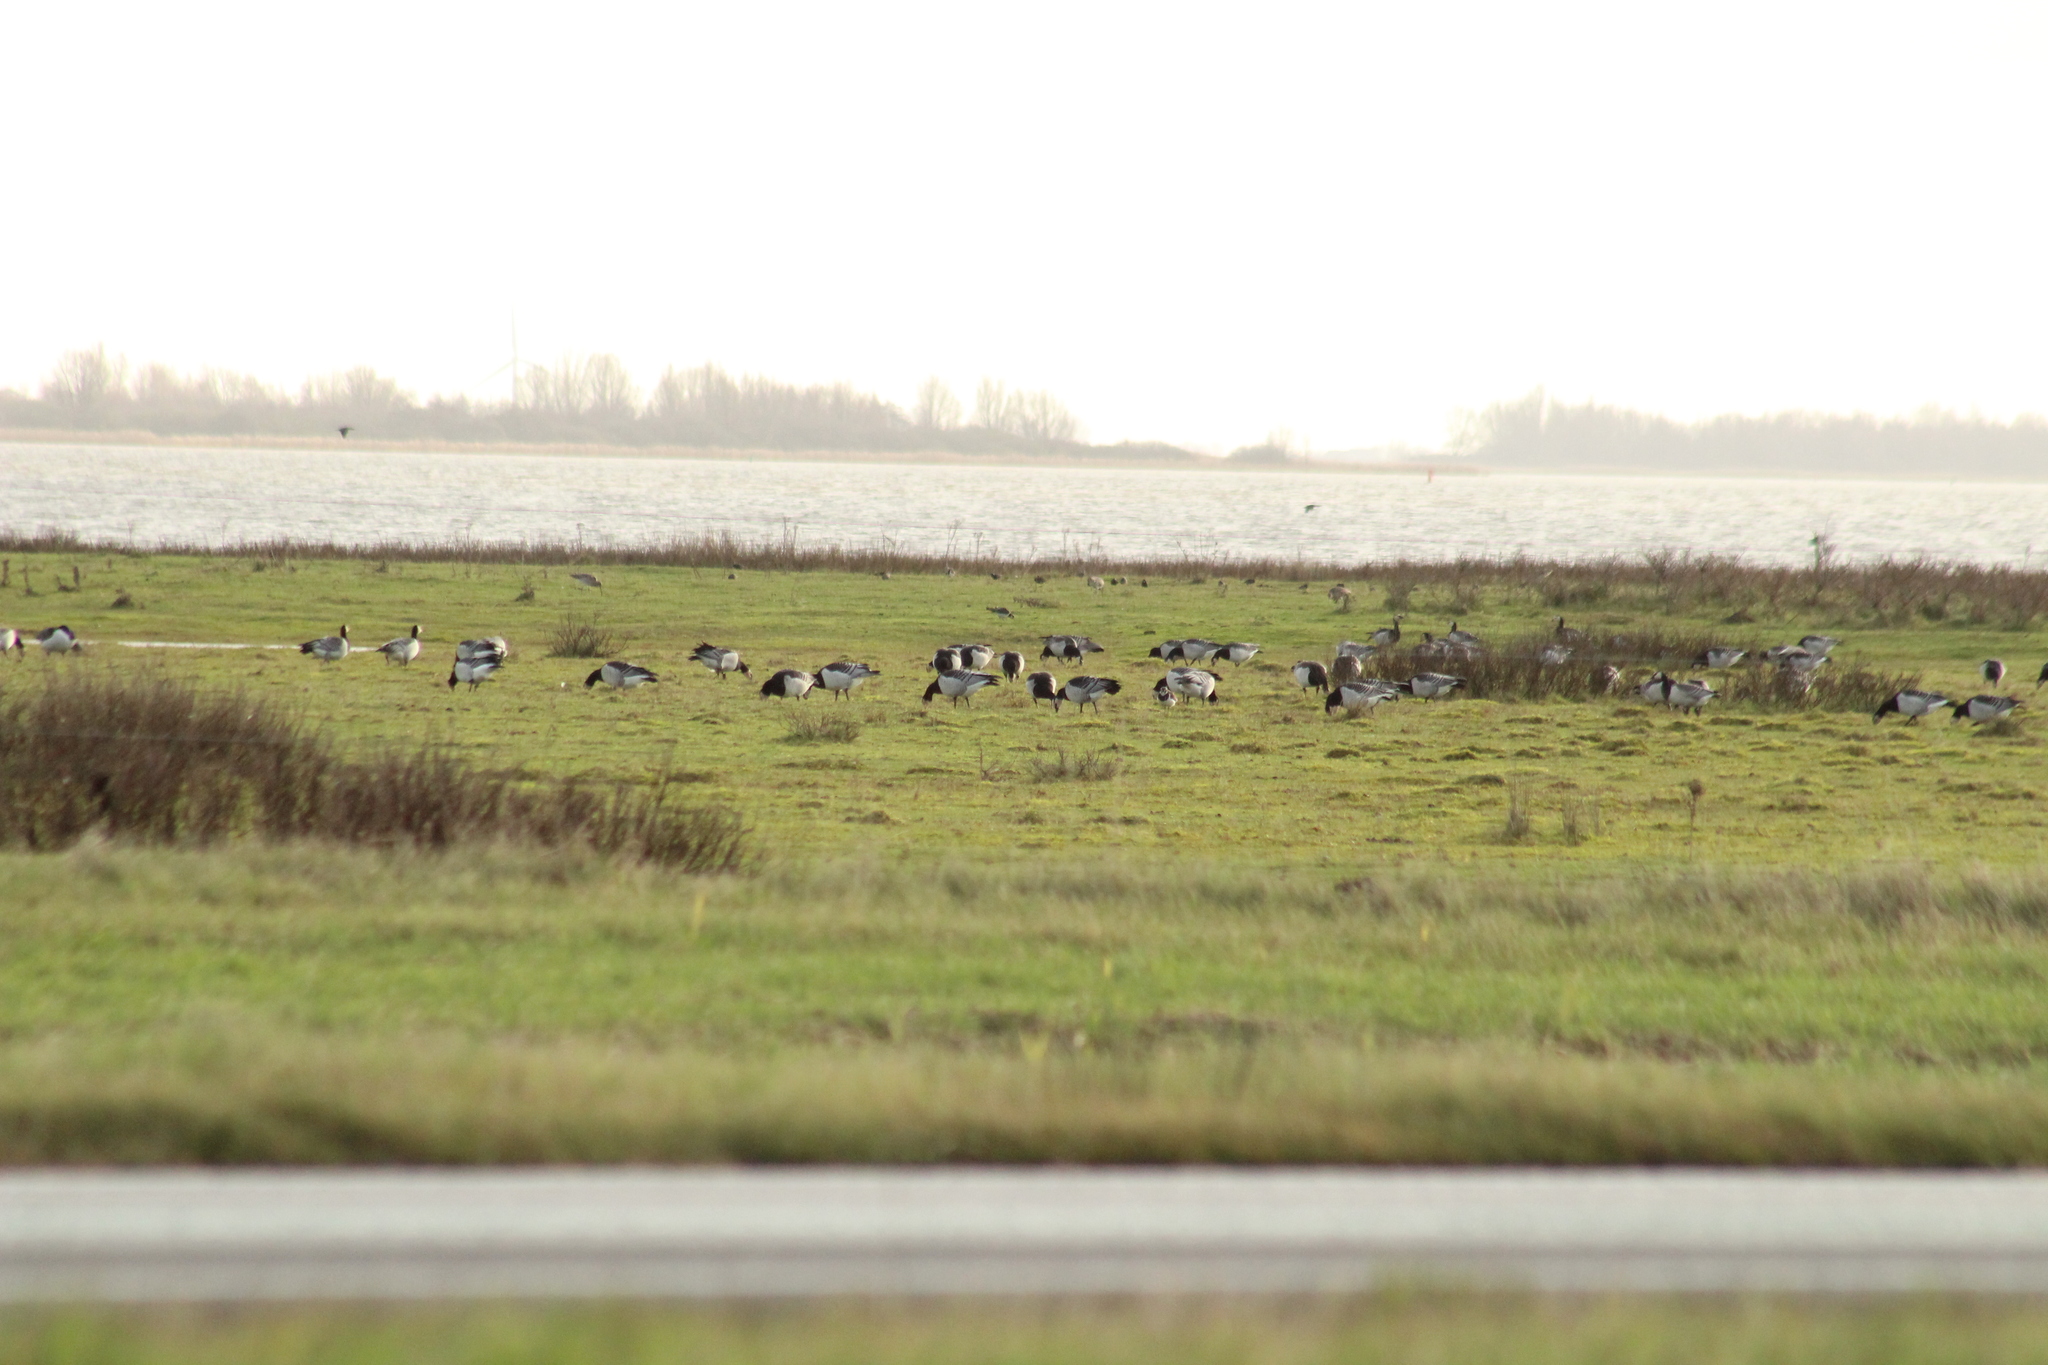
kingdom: Animalia
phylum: Chordata
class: Aves
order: Anseriformes
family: Anatidae
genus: Branta
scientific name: Branta leucopsis
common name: Barnacle goose
